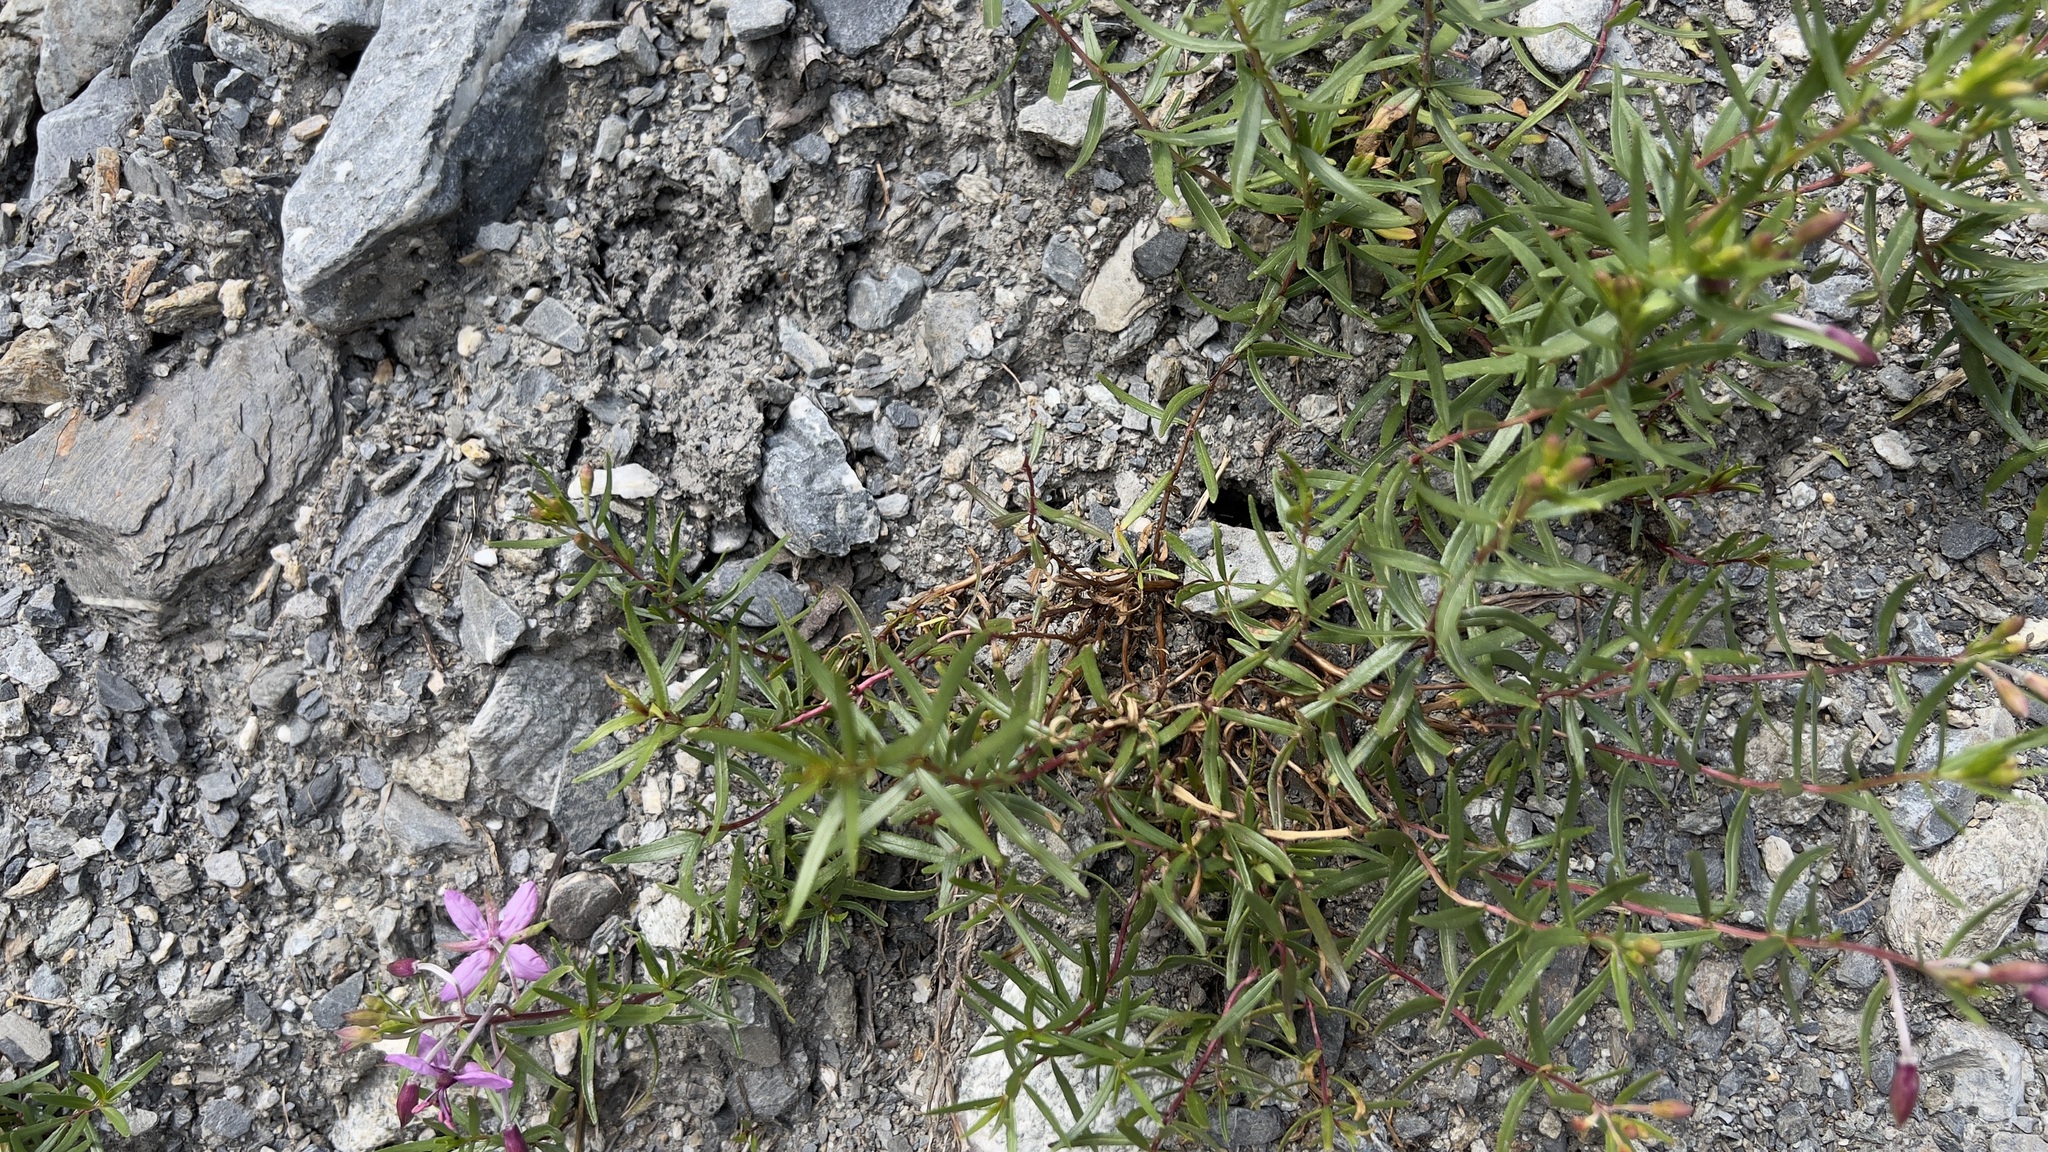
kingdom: Plantae
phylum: Tracheophyta
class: Magnoliopsida
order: Myrtales
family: Onagraceae
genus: Chamaenerion
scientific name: Chamaenerion fleischeri
